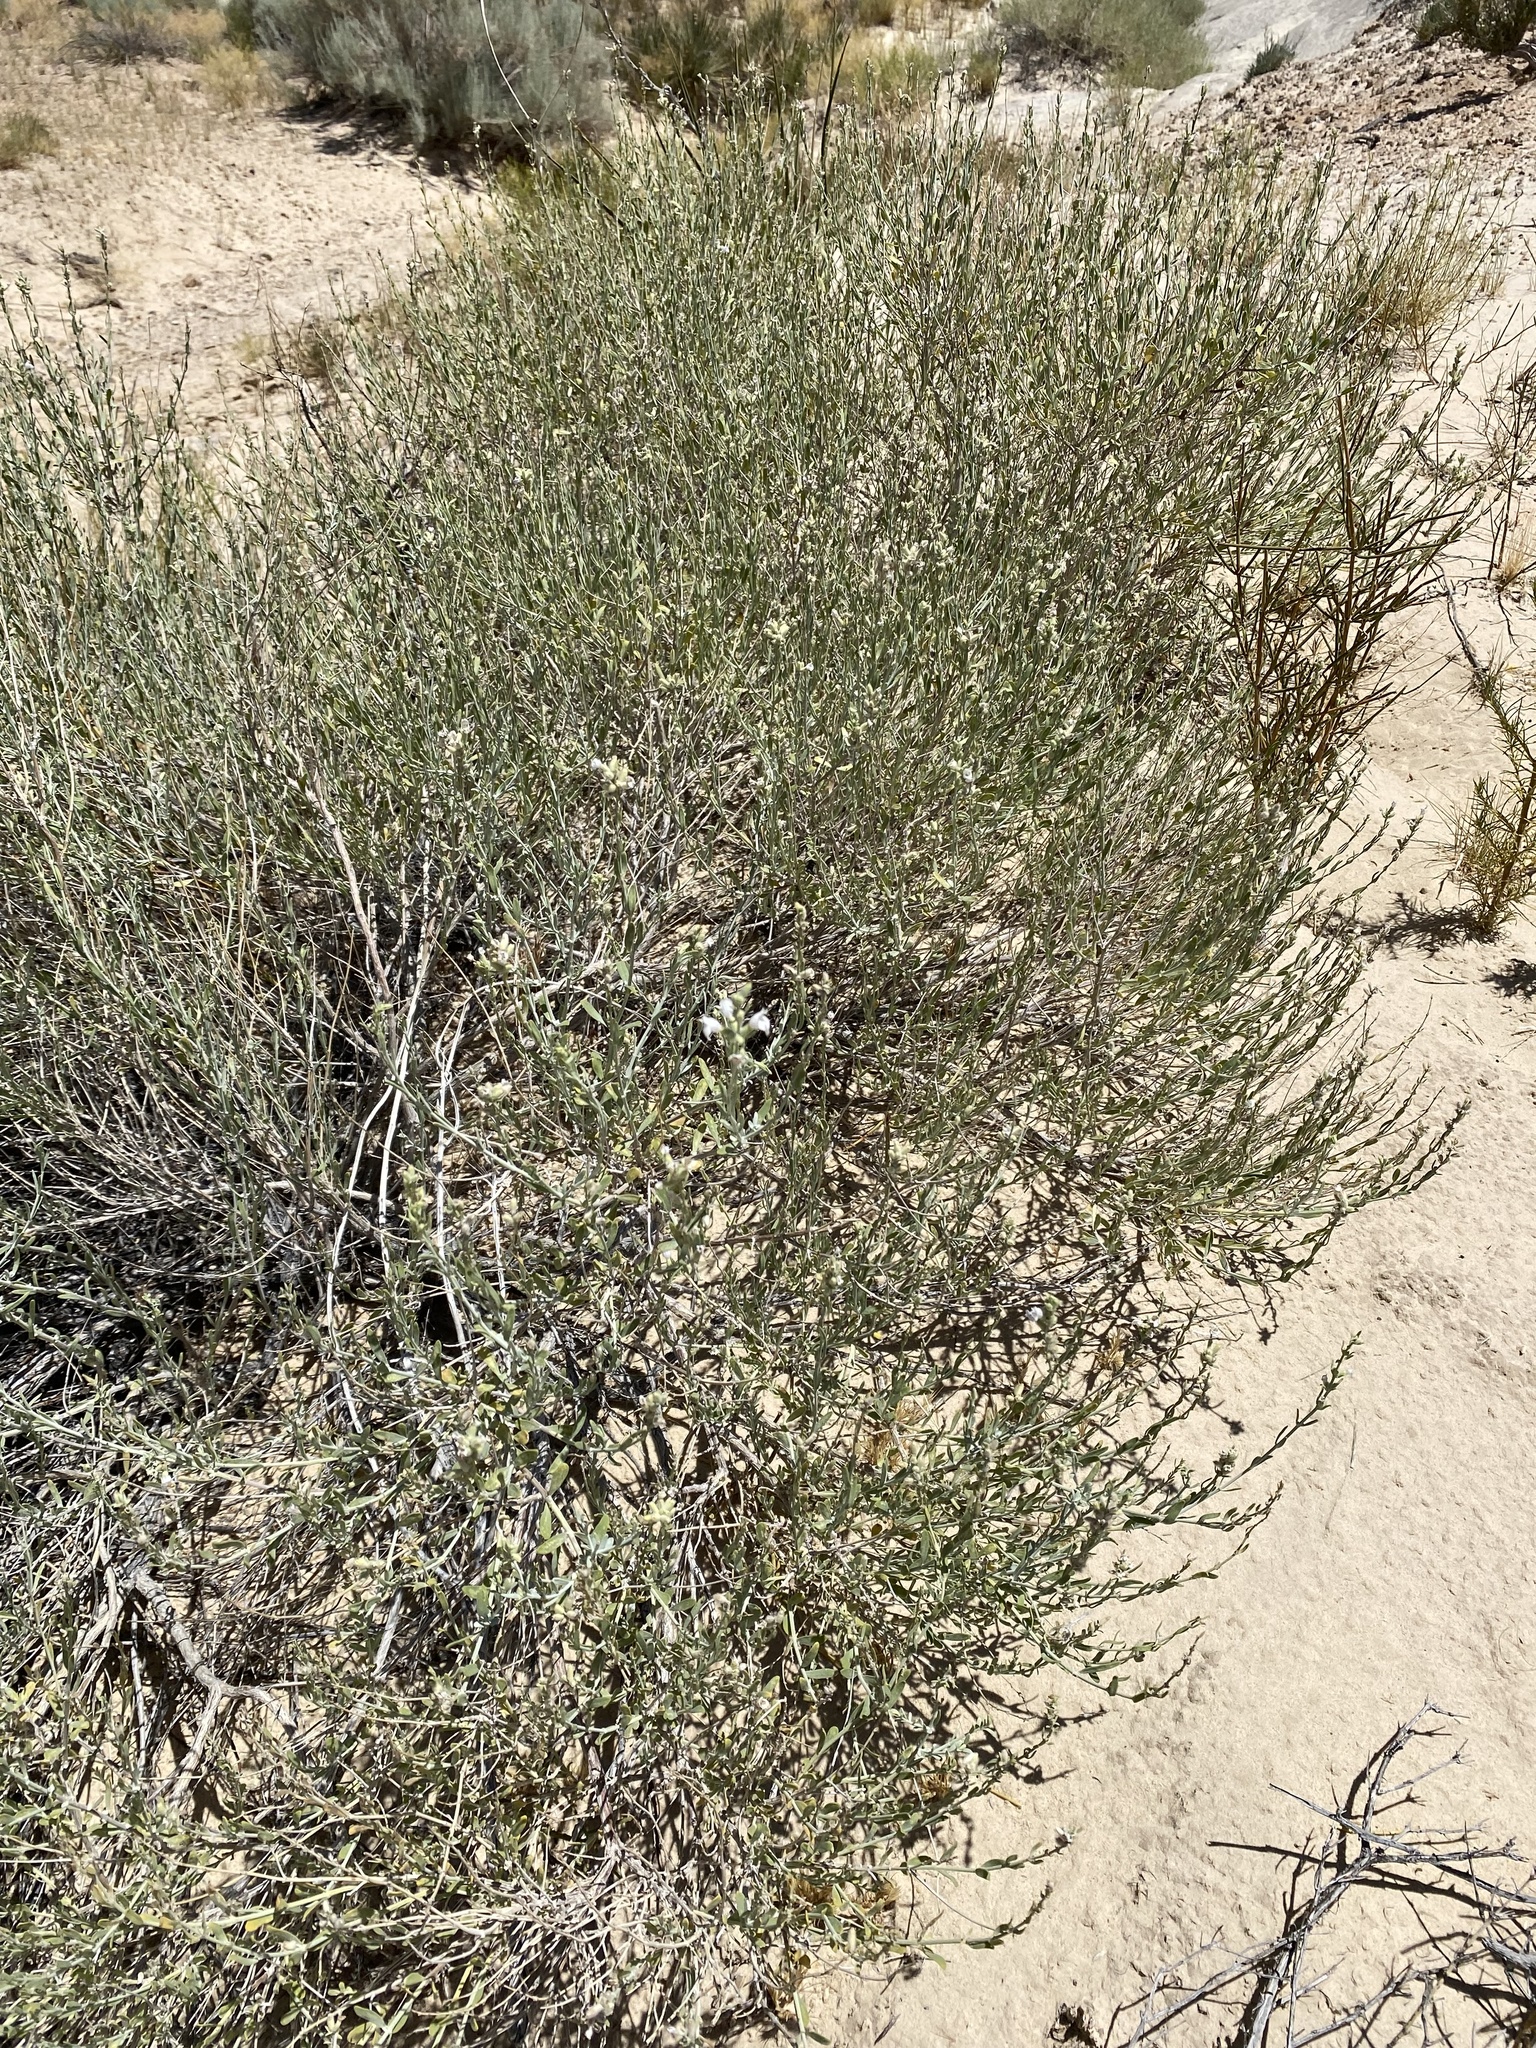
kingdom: Plantae
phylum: Tracheophyta
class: Magnoliopsida
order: Lamiales
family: Lamiaceae
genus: Poliomintha
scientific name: Poliomintha incana
